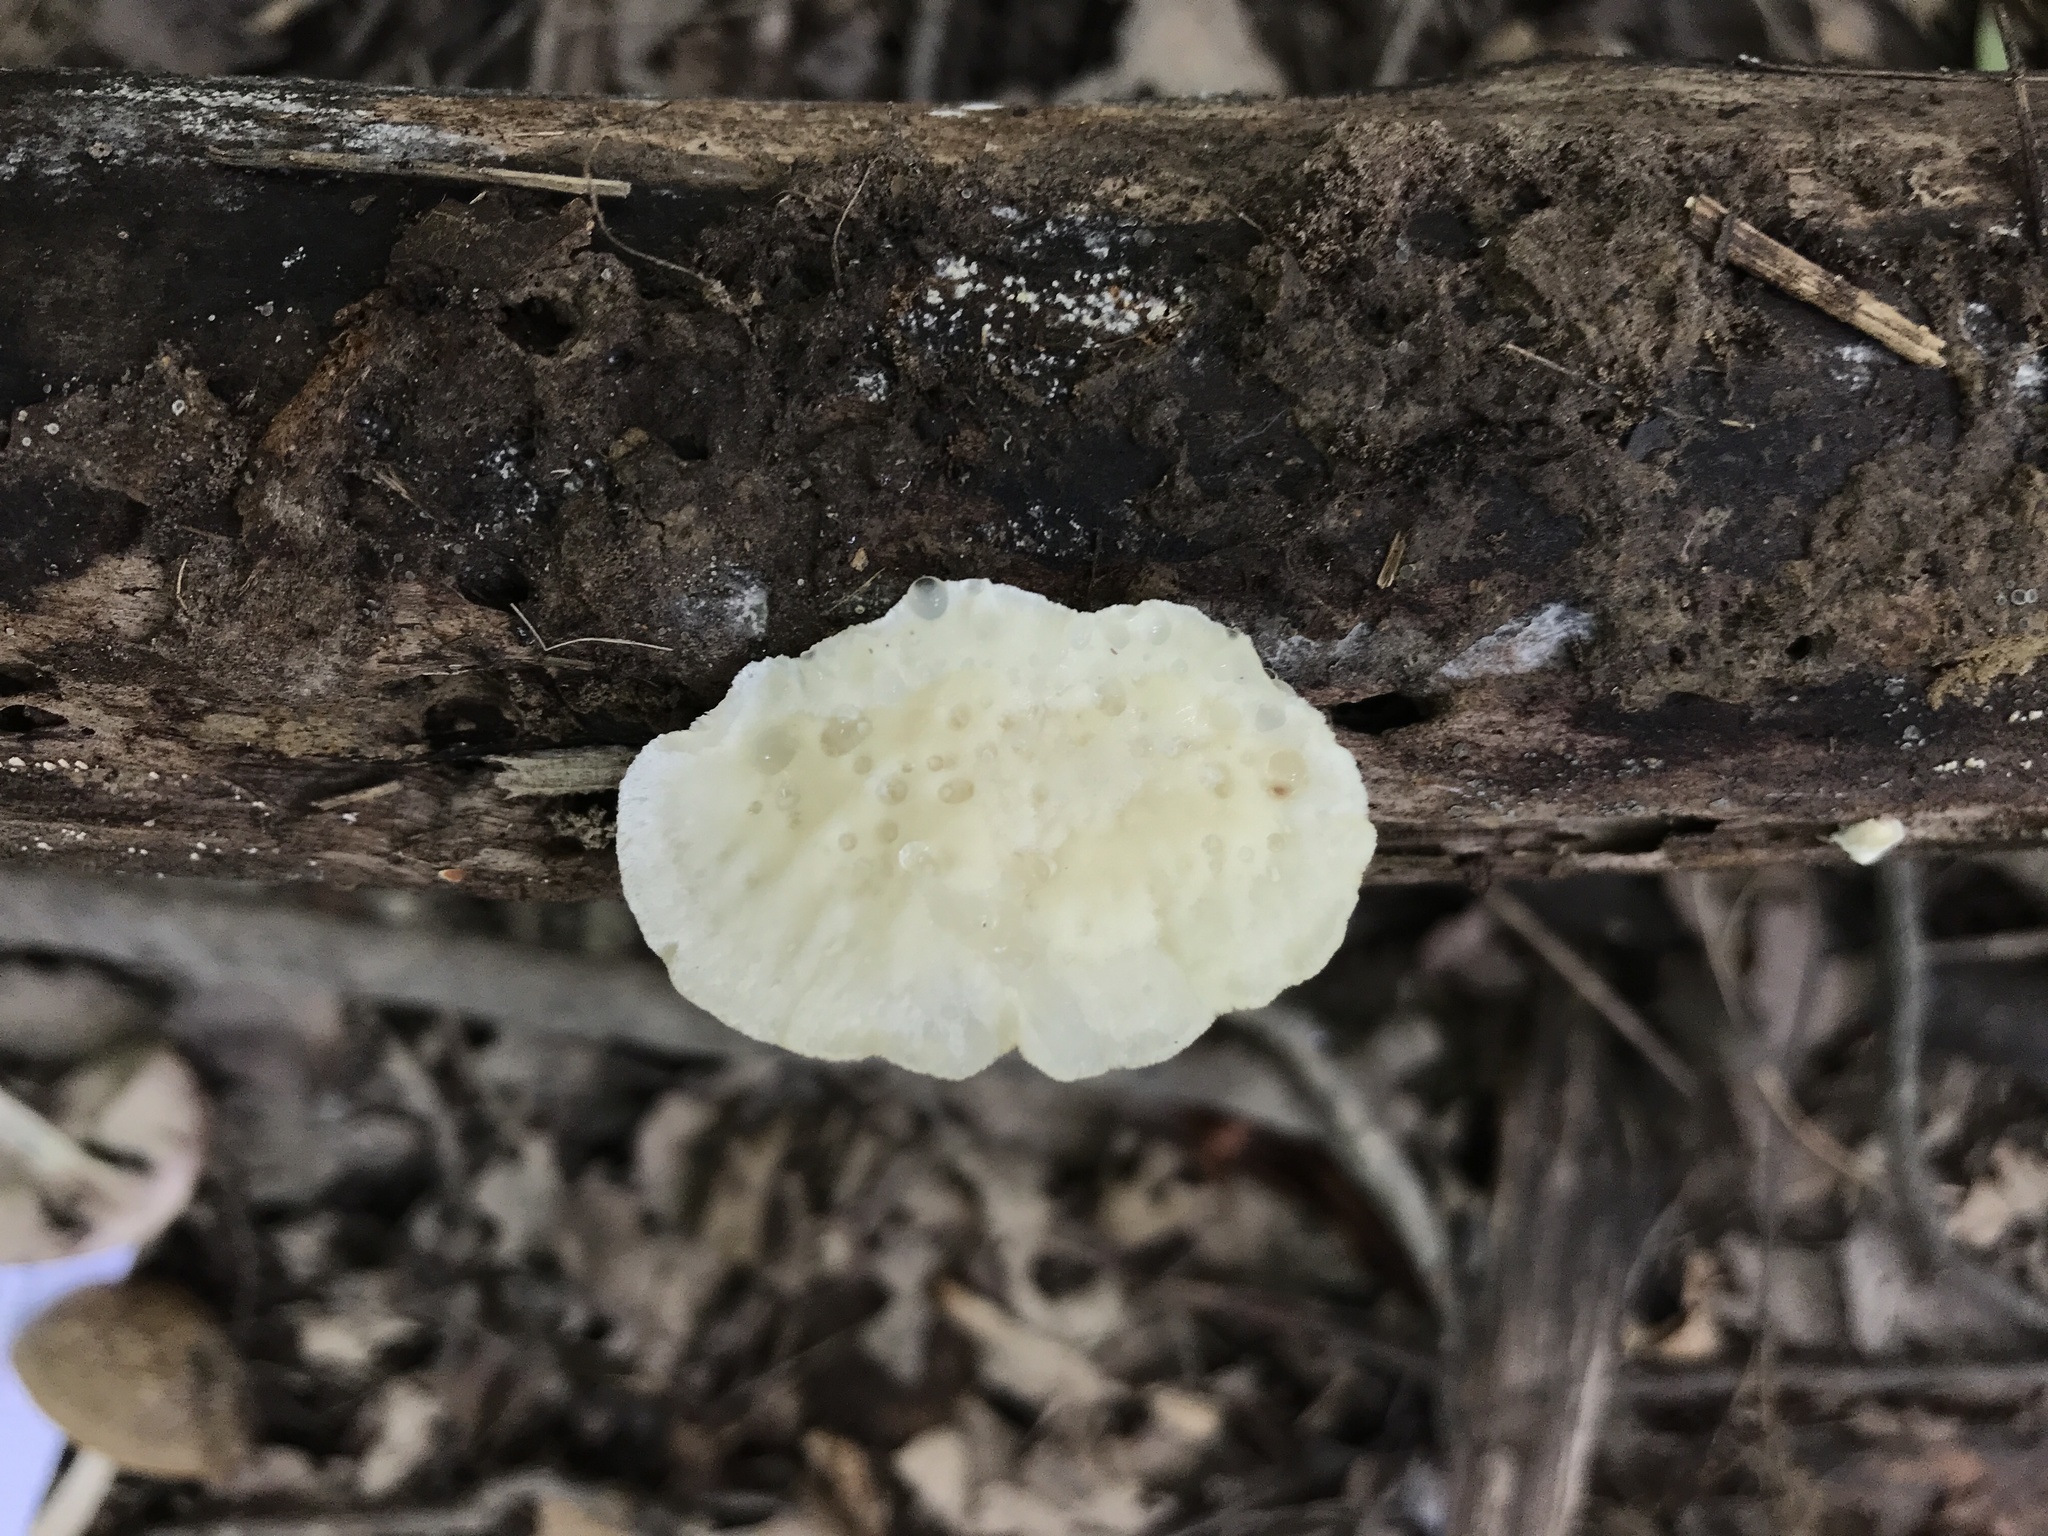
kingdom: Fungi
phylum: Basidiomycota
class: Agaricomycetes
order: Polyporales
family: Incrustoporiaceae
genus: Tyromyces
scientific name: Tyromyces chioneus
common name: White cheese polypore
